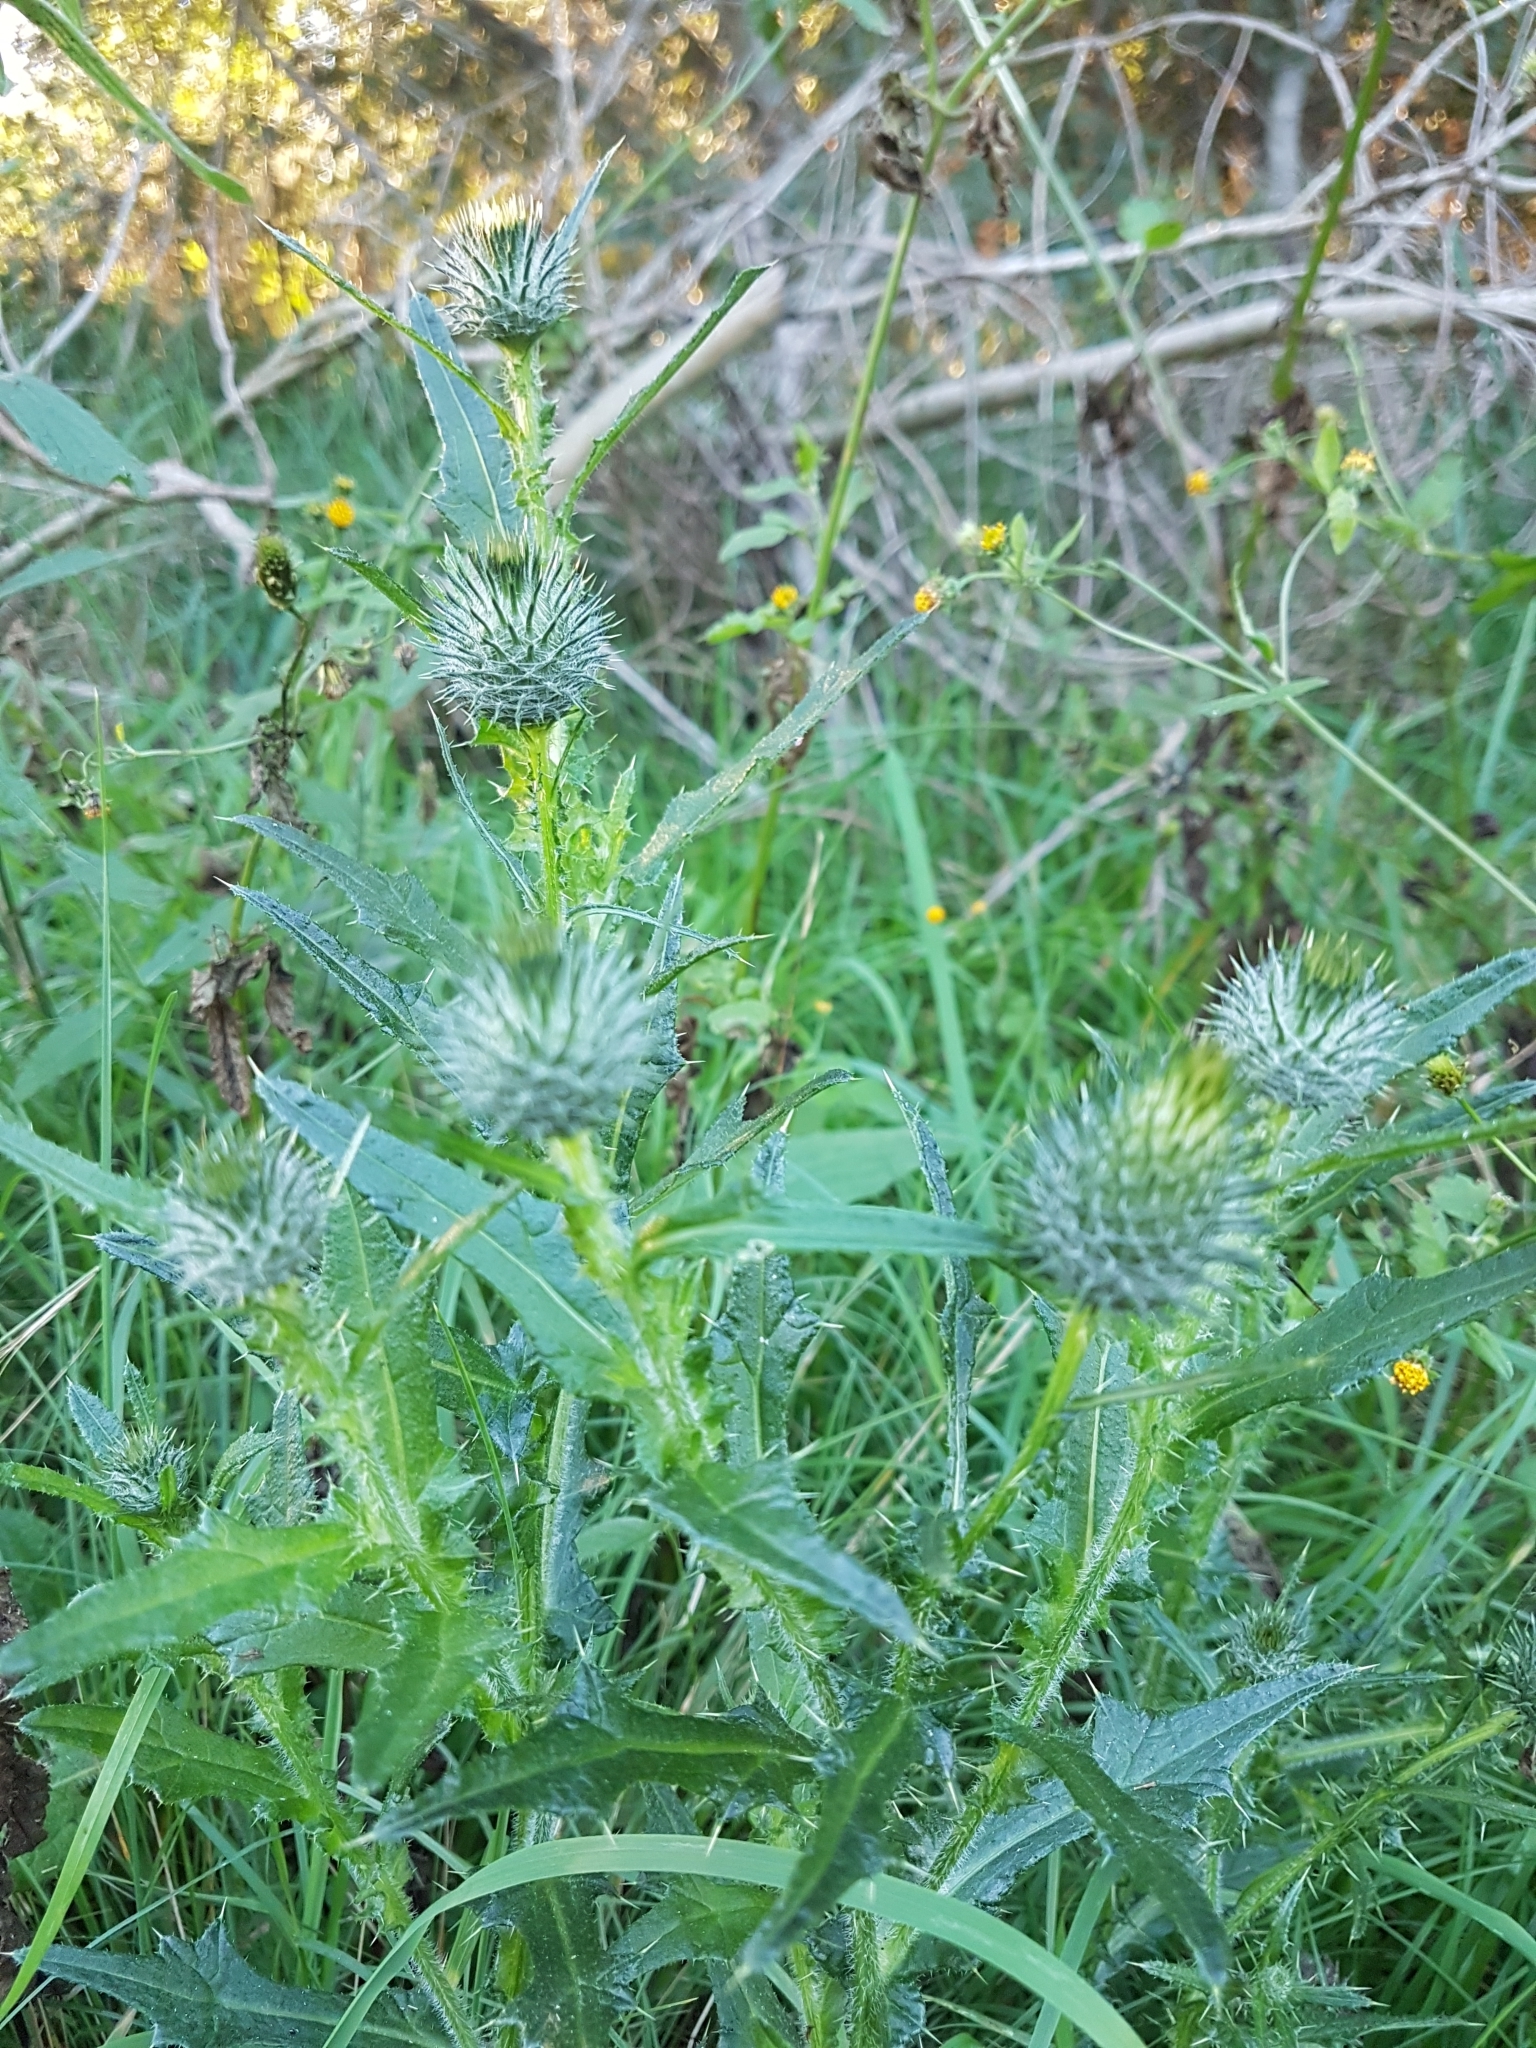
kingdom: Plantae
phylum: Tracheophyta
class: Magnoliopsida
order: Asterales
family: Asteraceae
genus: Cirsium
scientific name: Cirsium vulgare
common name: Bull thistle
